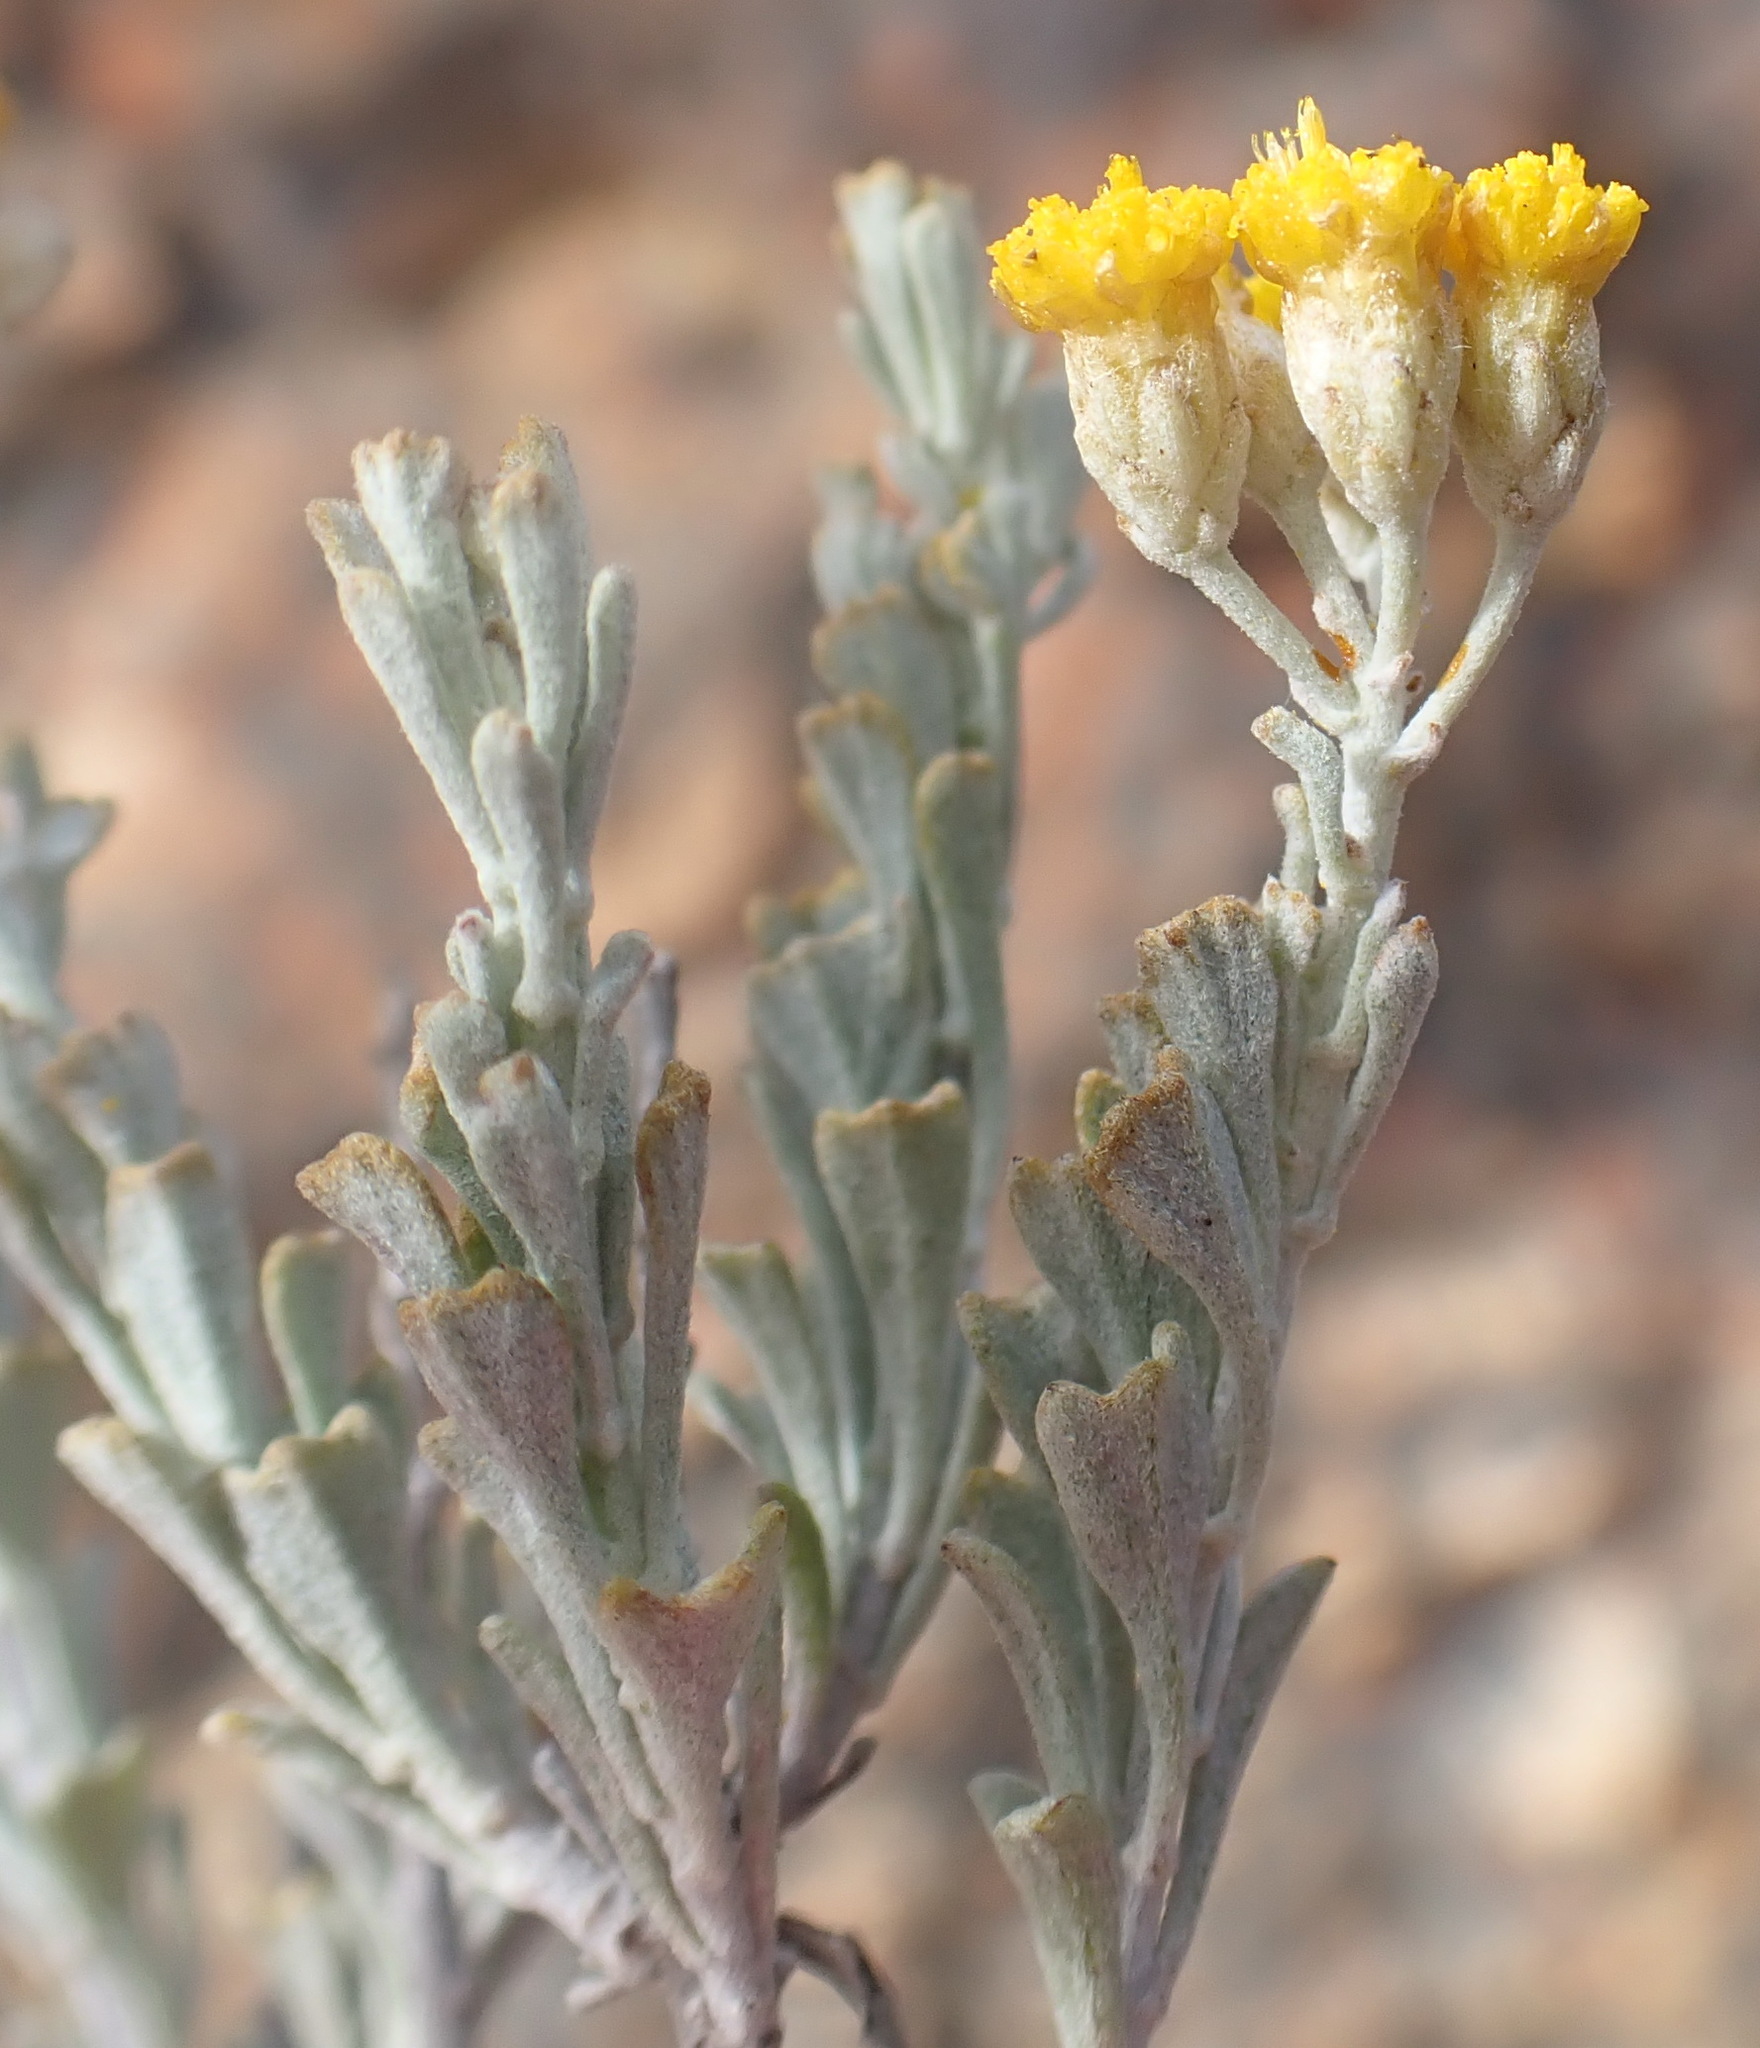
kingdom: Plantae
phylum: Tracheophyta
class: Magnoliopsida
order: Asterales
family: Asteraceae
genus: Pentzia
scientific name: Pentzia dentata
